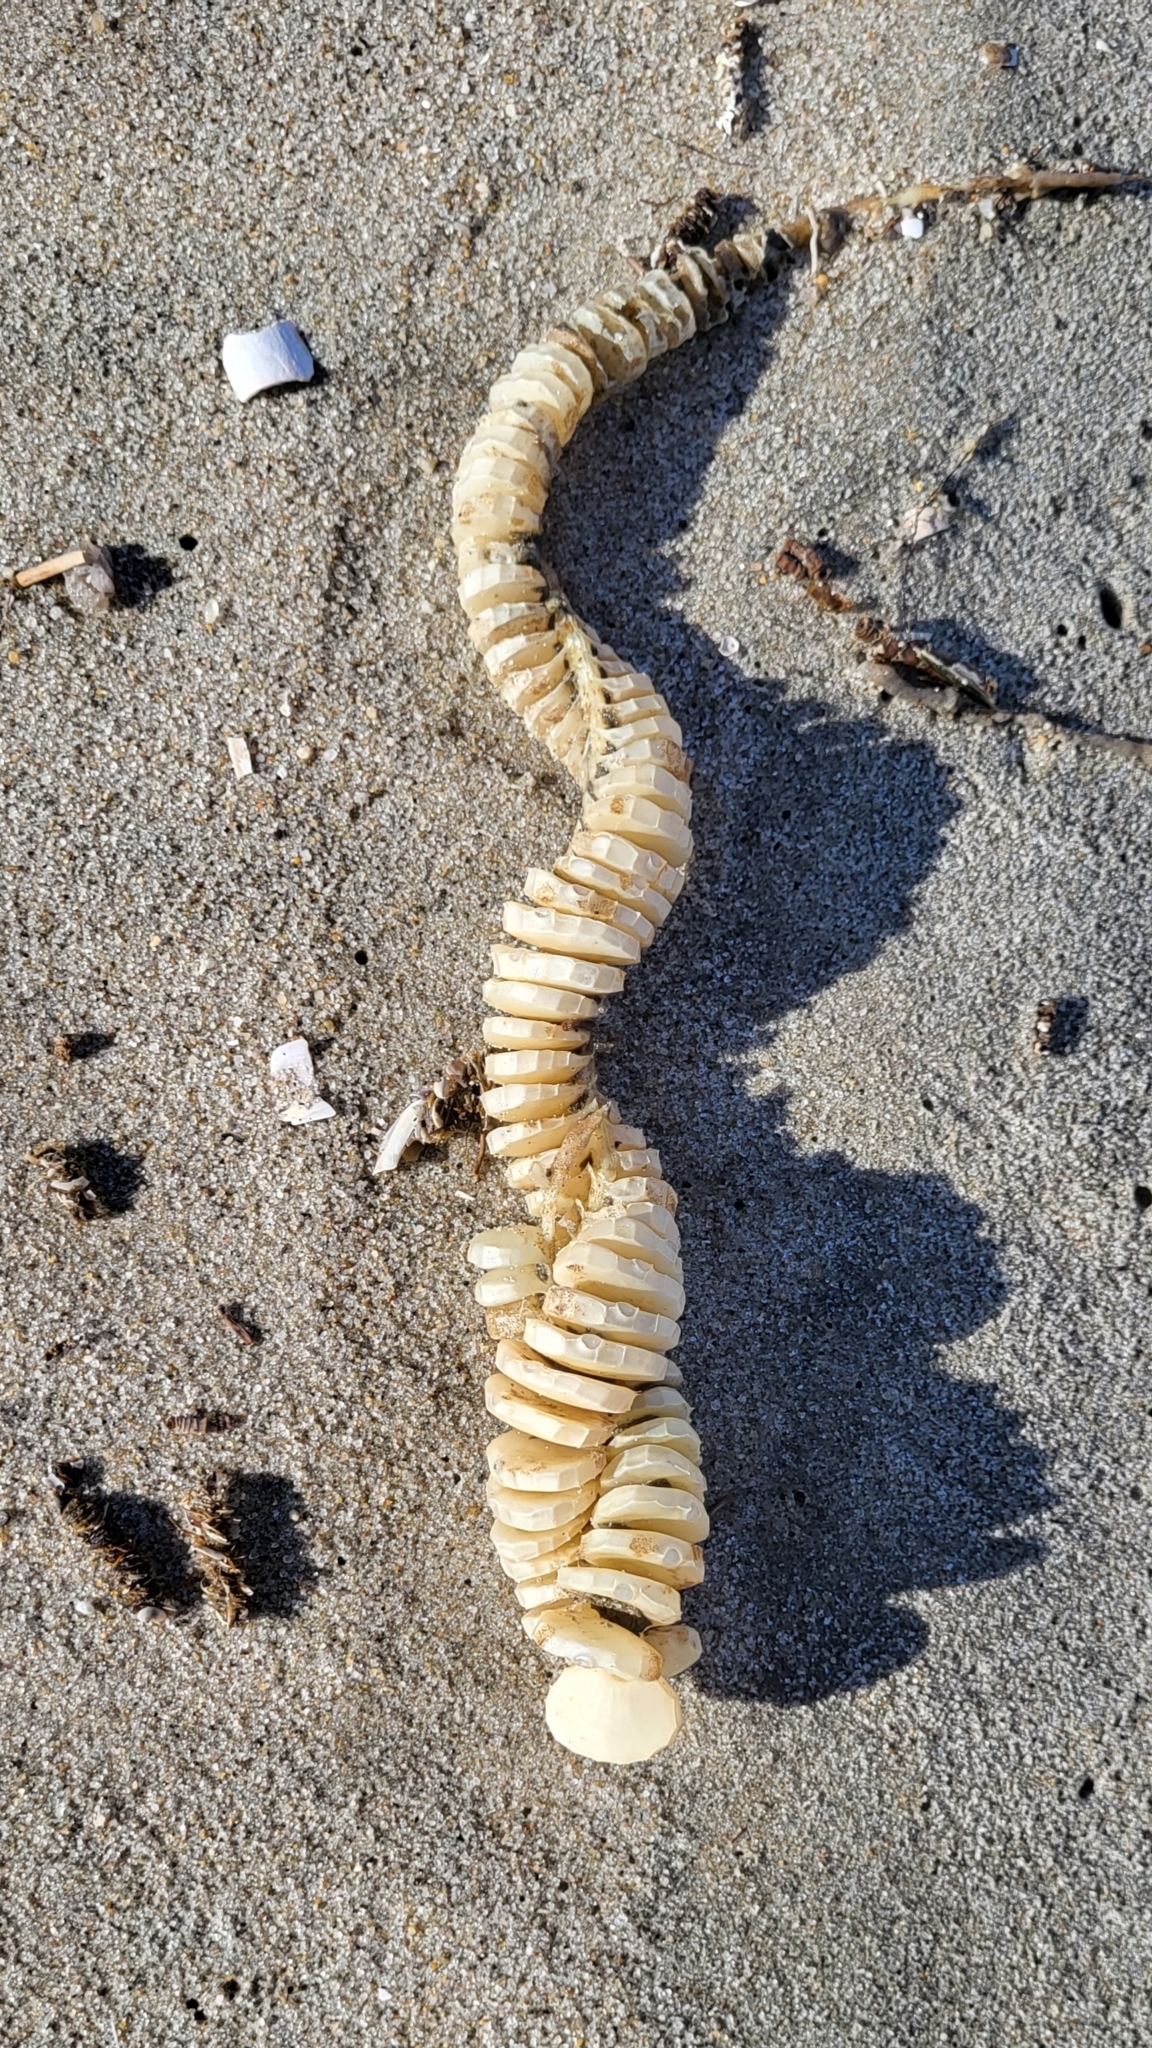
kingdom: Animalia
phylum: Mollusca
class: Gastropoda
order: Neogastropoda
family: Busyconidae
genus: Busycon
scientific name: Busycon carica
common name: Knobbed whelk
